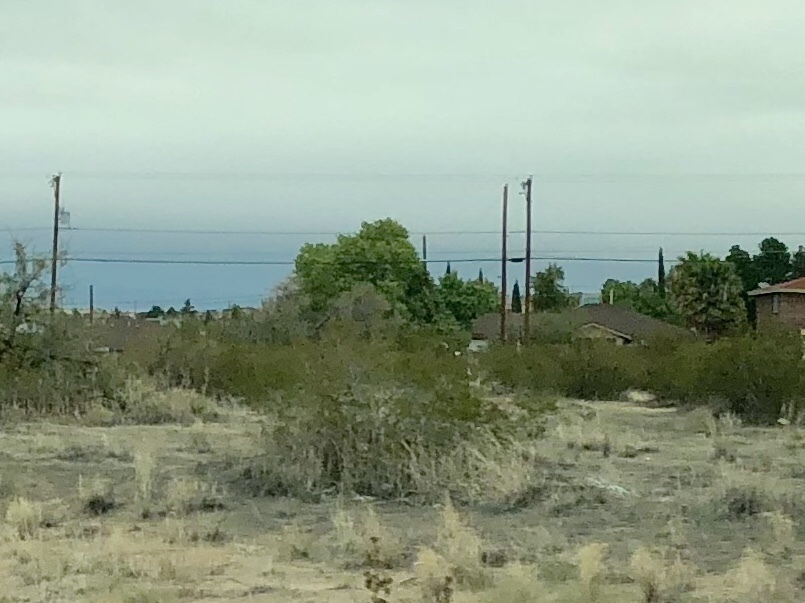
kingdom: Plantae
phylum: Tracheophyta
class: Magnoliopsida
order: Zygophyllales
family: Zygophyllaceae
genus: Larrea
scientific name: Larrea tridentata
